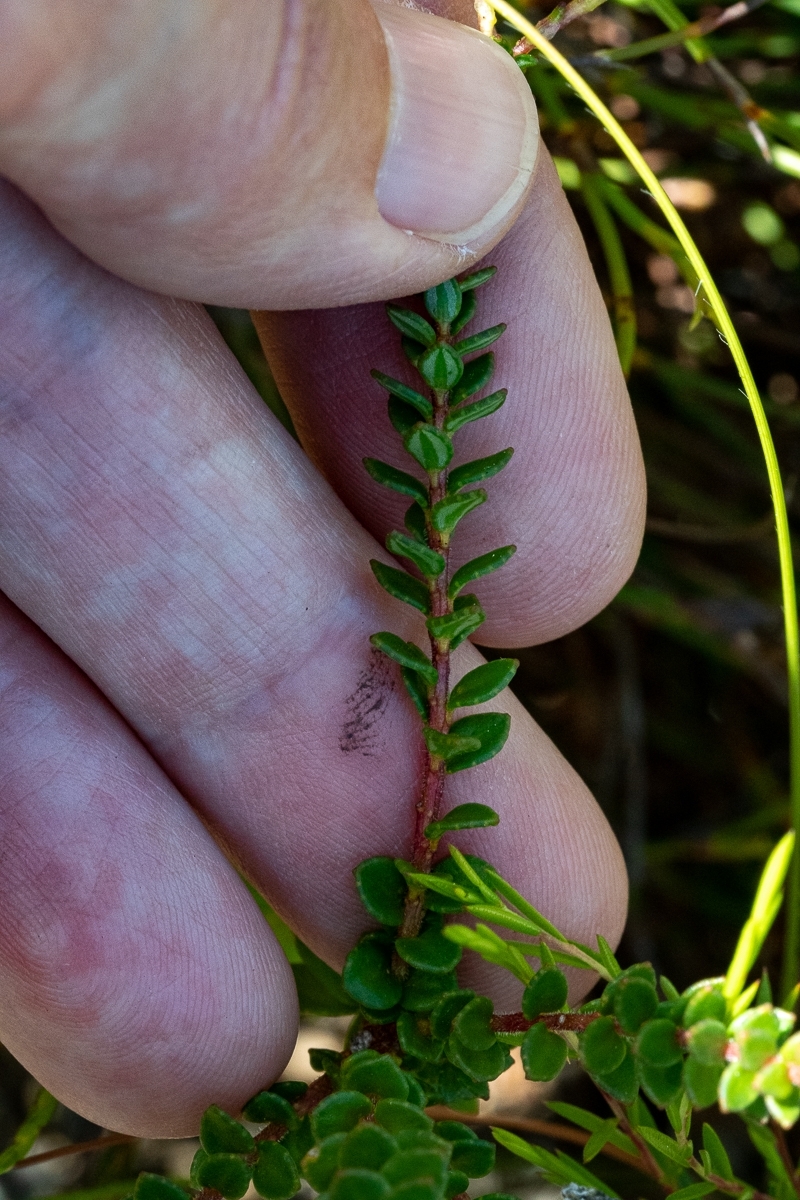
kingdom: Plantae
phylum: Tracheophyta
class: Magnoliopsida
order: Sapindales
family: Rutaceae
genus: Adenandra
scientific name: Adenandra brachyphylla
